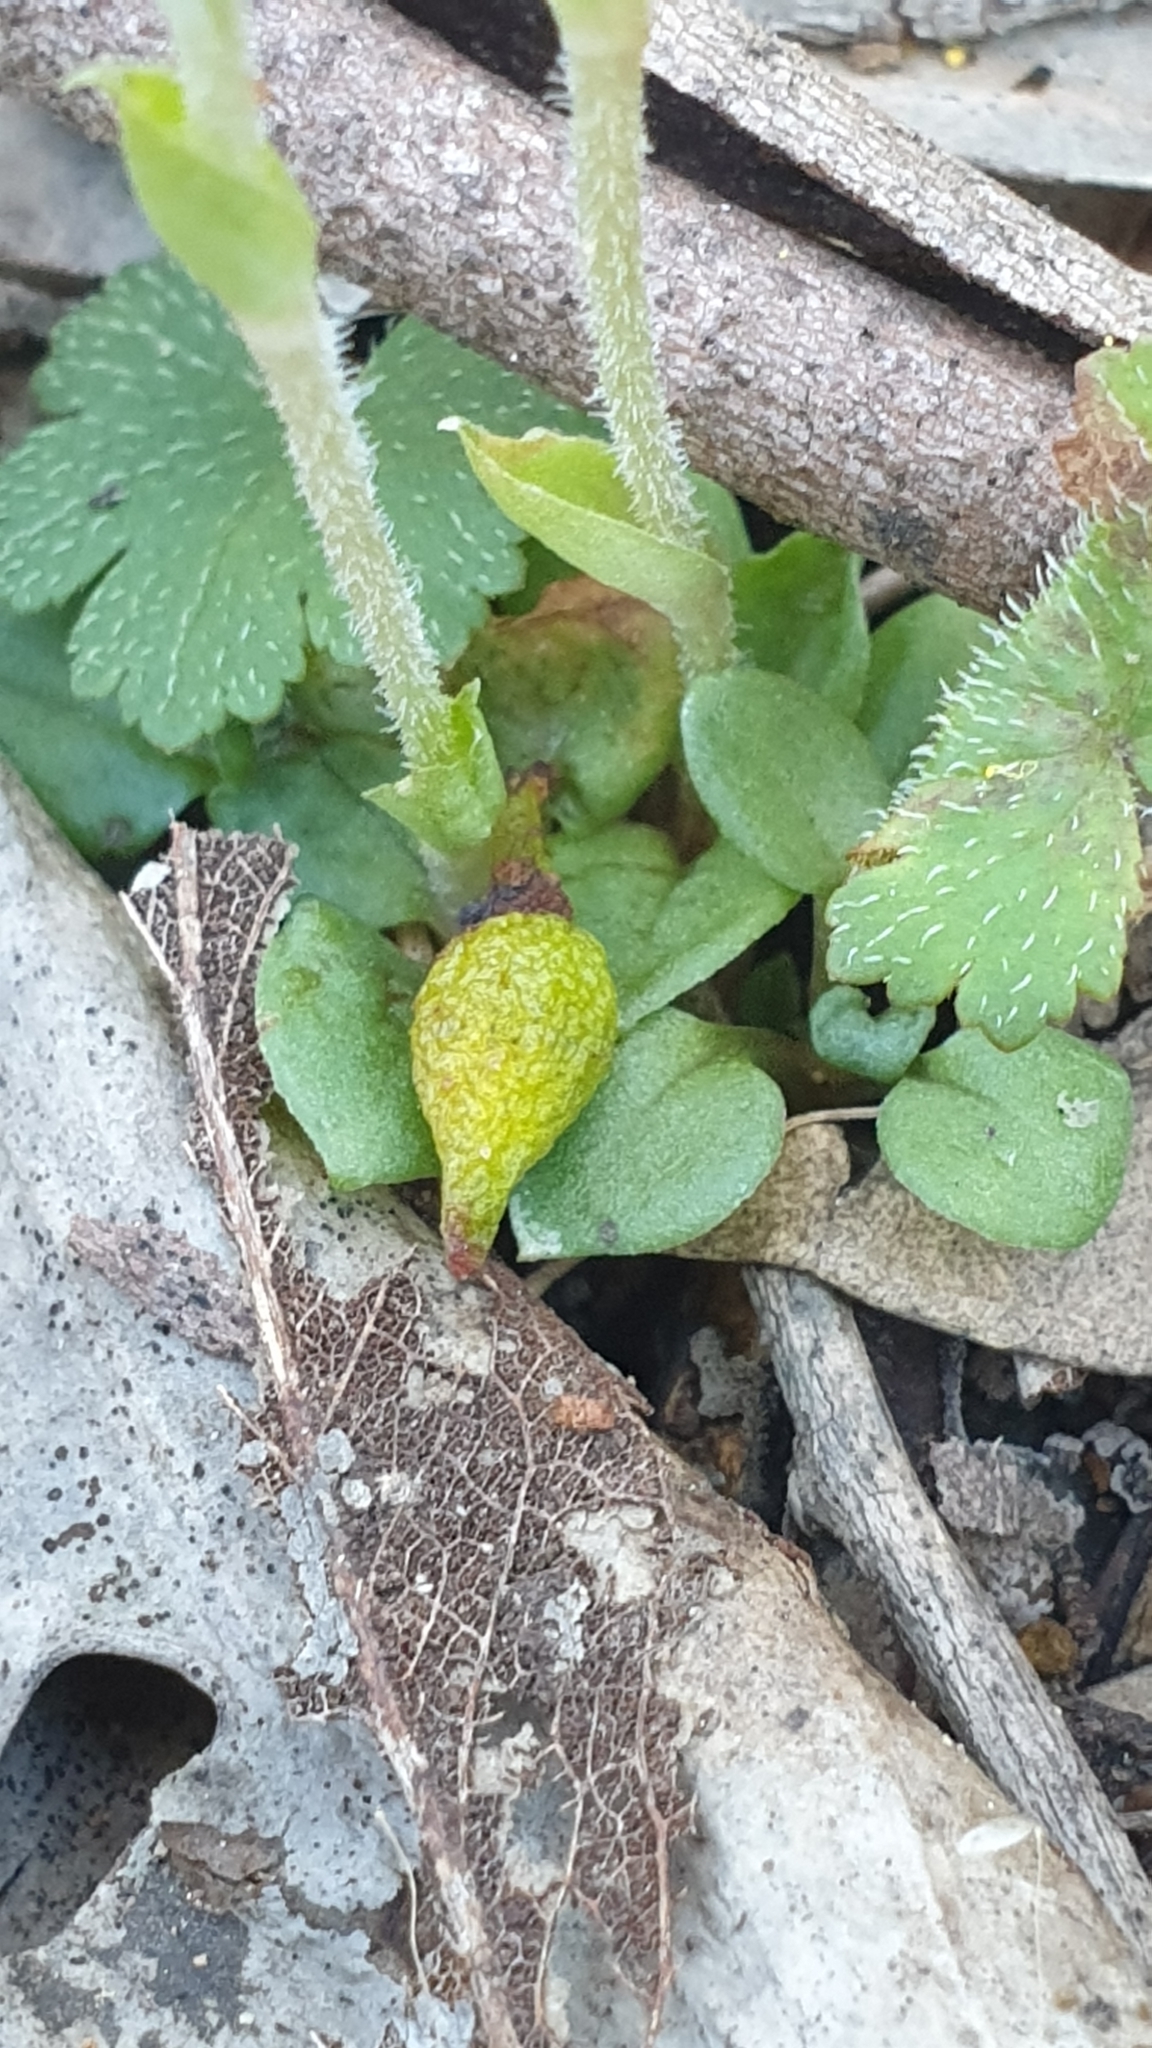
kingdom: Plantae
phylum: Tracheophyta
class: Liliopsida
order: Asparagales
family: Orchidaceae
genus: Pterostylis
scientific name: Pterostylis nana
